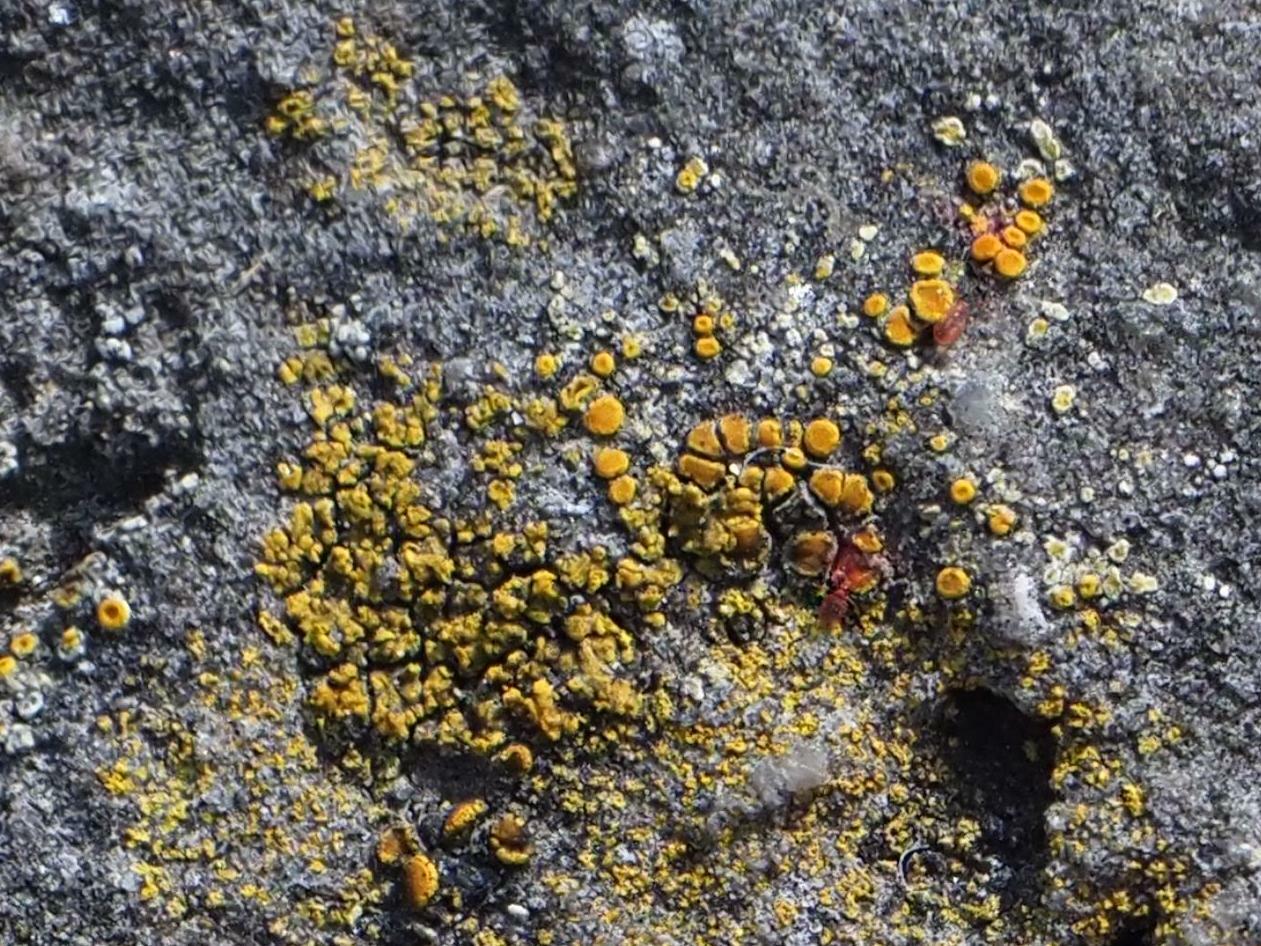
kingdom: Fungi
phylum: Ascomycota
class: Candelariomycetes
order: Candelariales
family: Candelariaceae
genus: Candelariella
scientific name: Candelariella aurella
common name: Hidden goldspeck lichen
